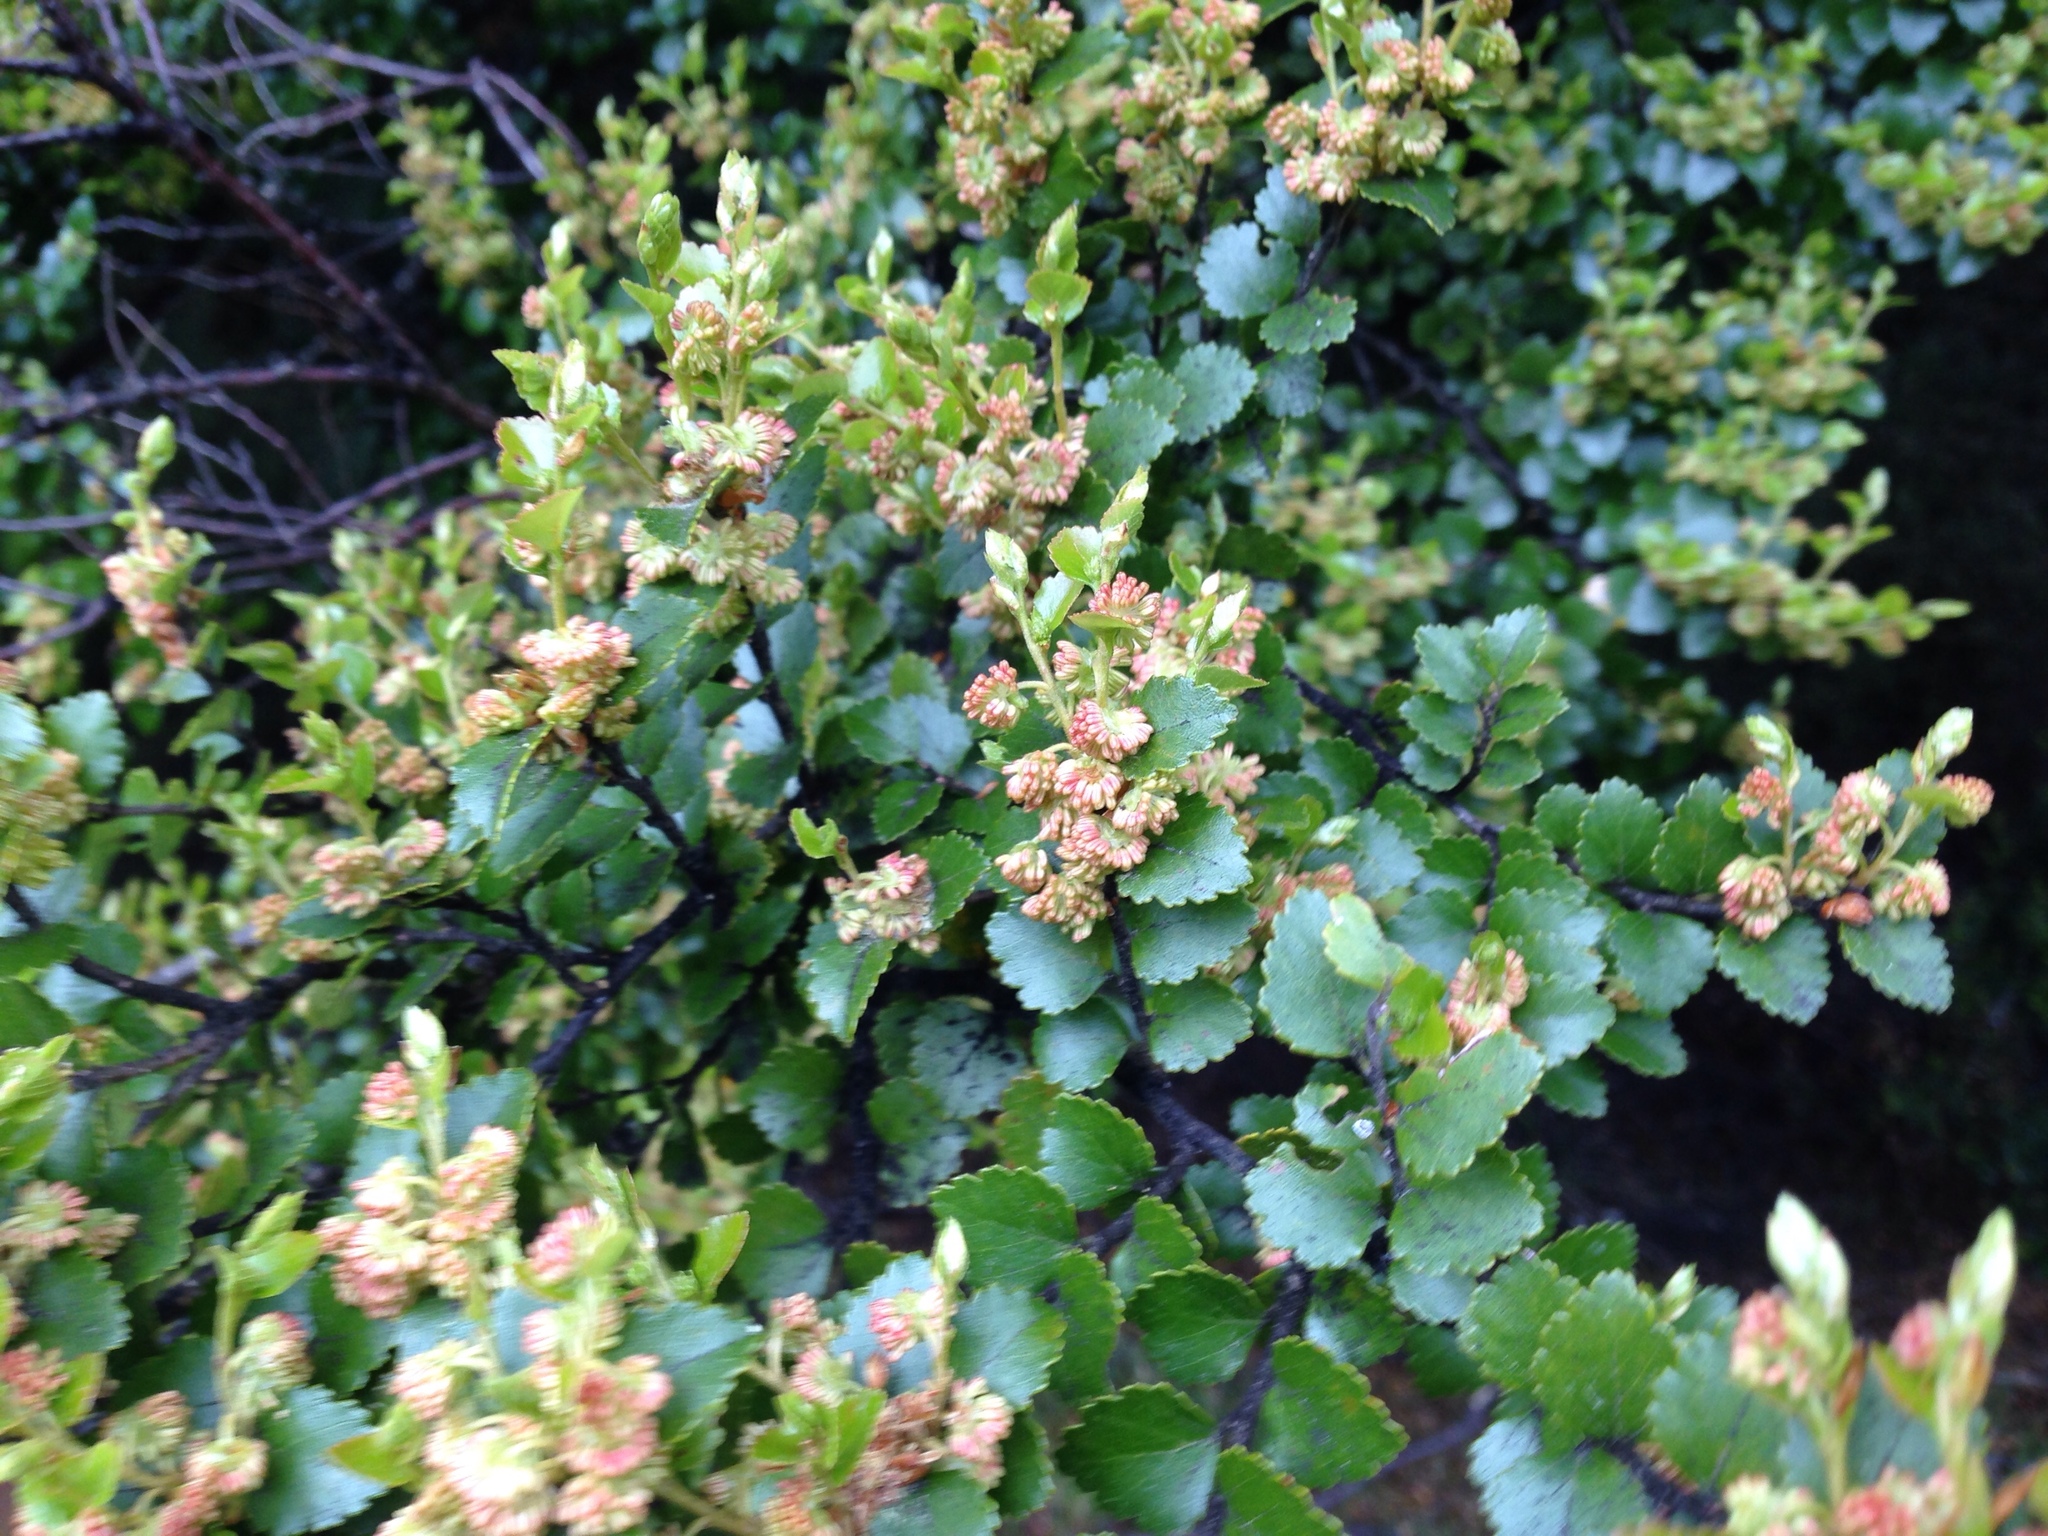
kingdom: Plantae
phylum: Tracheophyta
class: Magnoliopsida
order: Fagales
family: Nothofagaceae
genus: Nothofagus
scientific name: Nothofagus menziesii
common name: Silver beech
